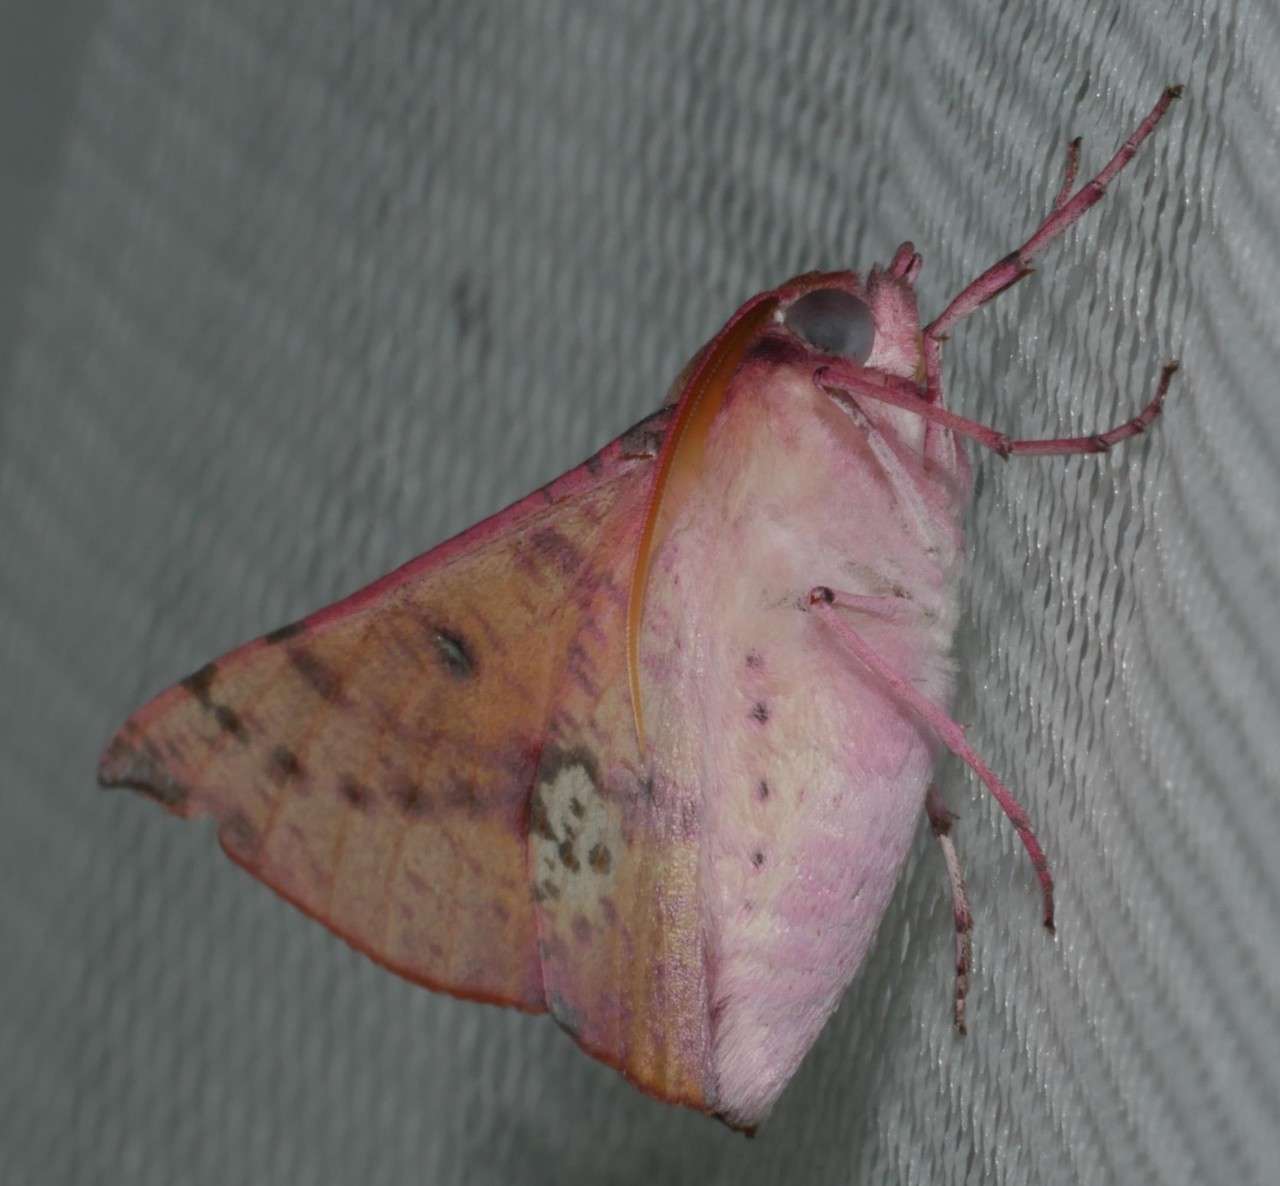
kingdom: Animalia
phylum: Arthropoda
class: Insecta
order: Lepidoptera
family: Geometridae
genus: Oenochroma
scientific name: Oenochroma vinaria
